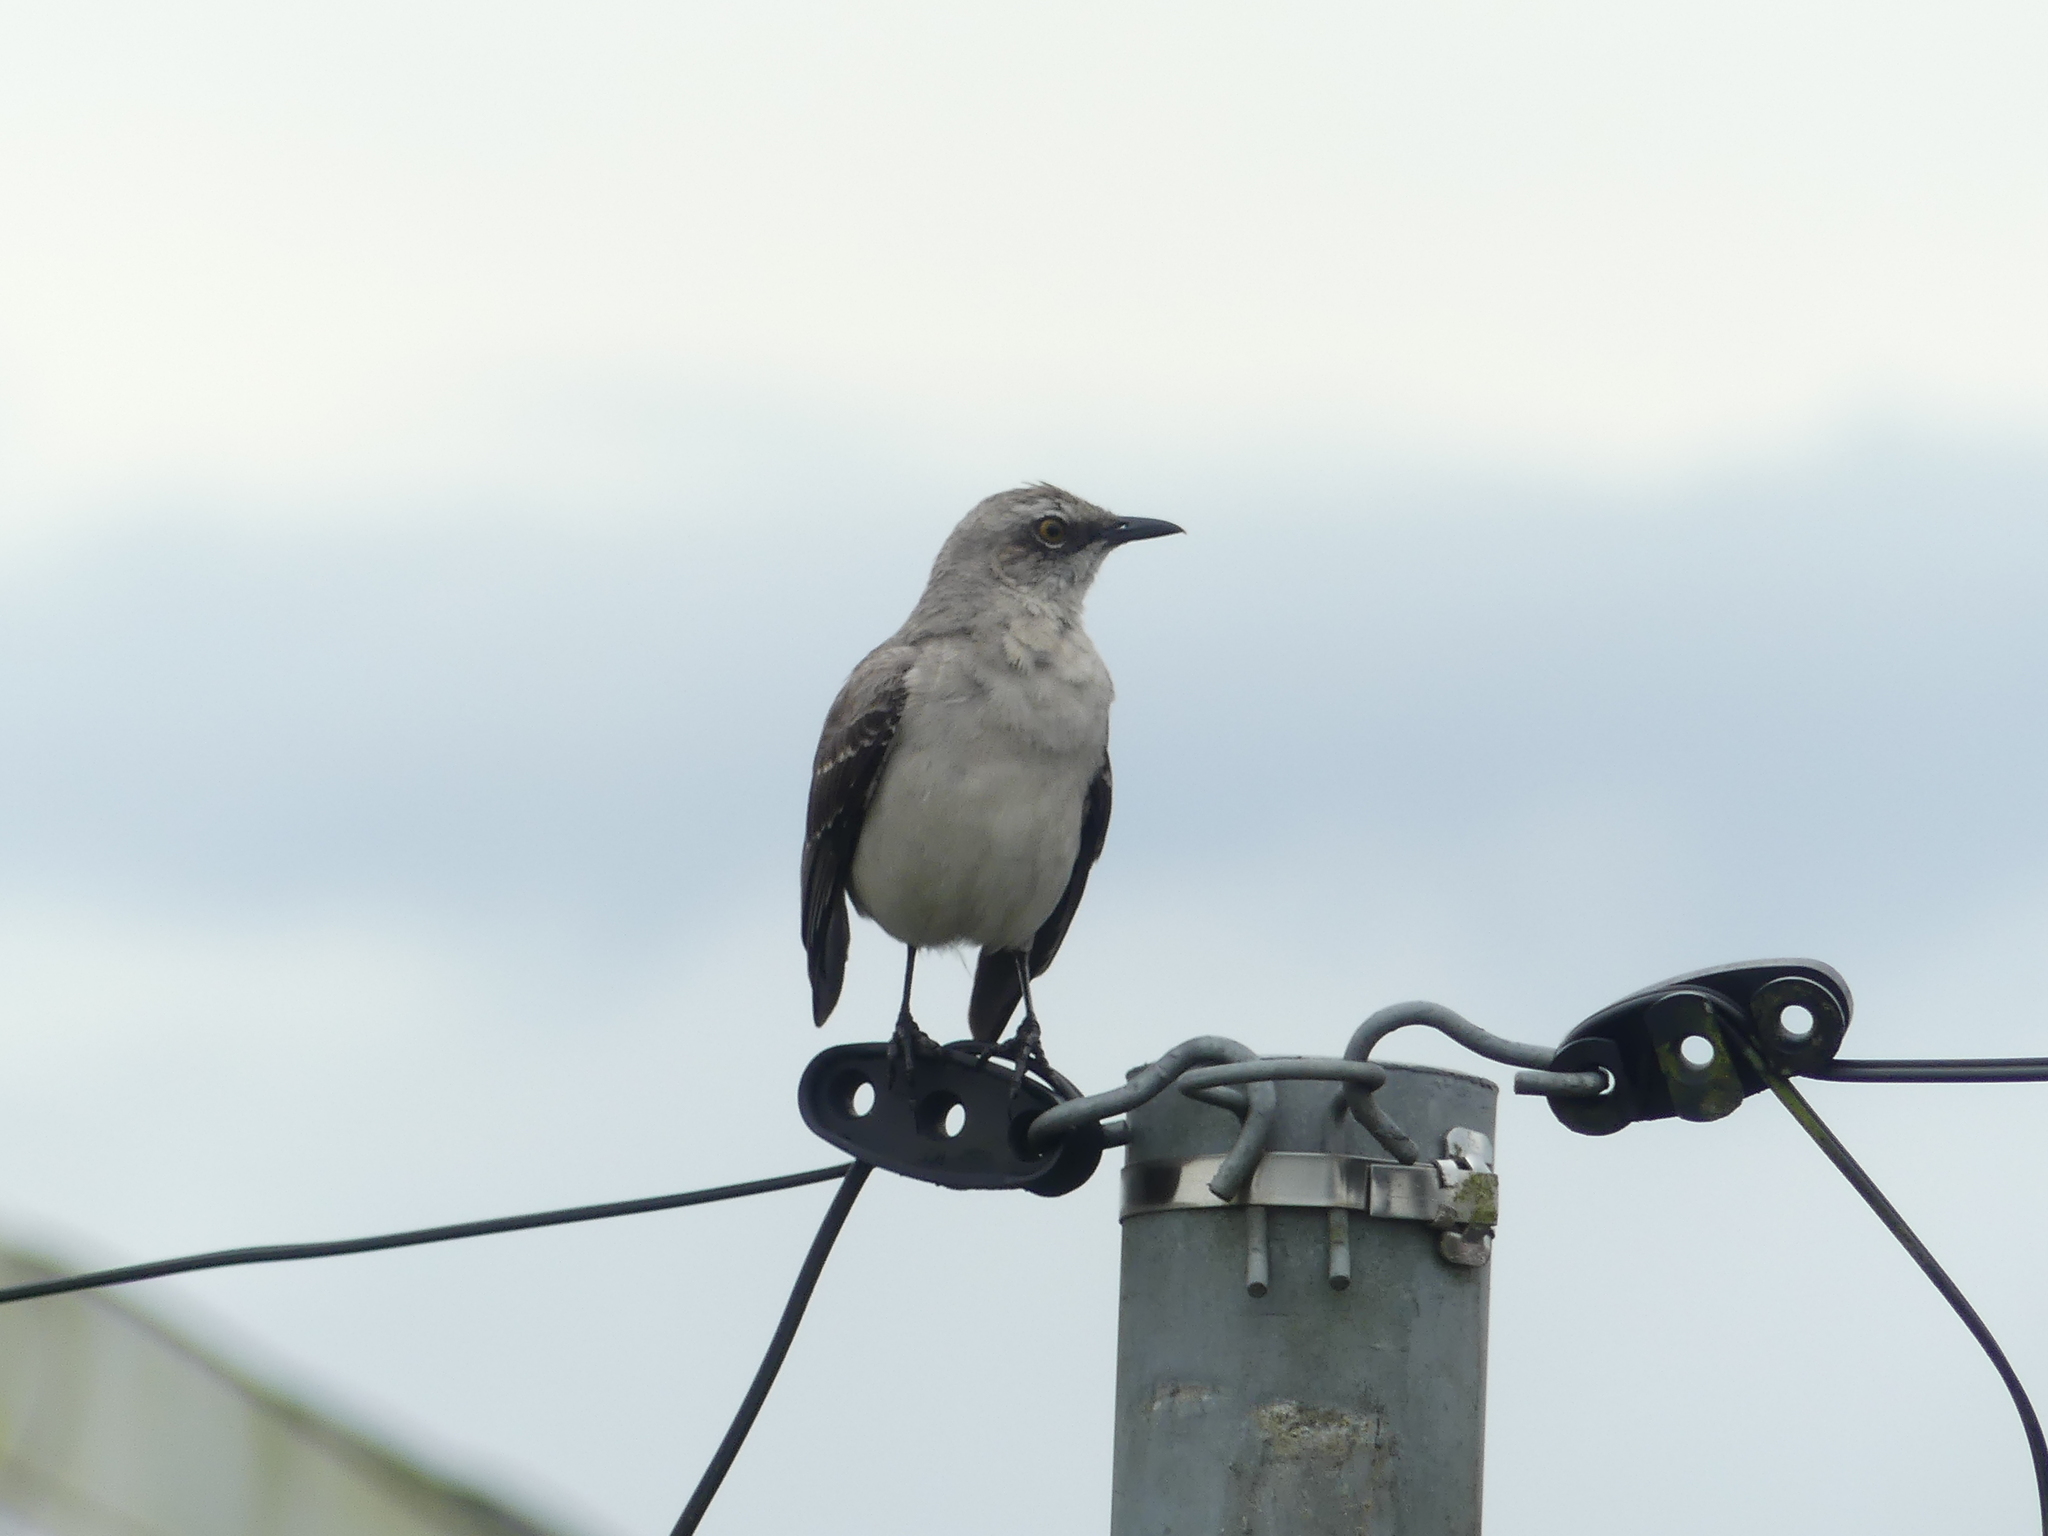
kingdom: Animalia
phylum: Chordata
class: Aves
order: Passeriformes
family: Mimidae
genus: Mimus
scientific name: Mimus gilvus
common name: Tropical mockingbird
